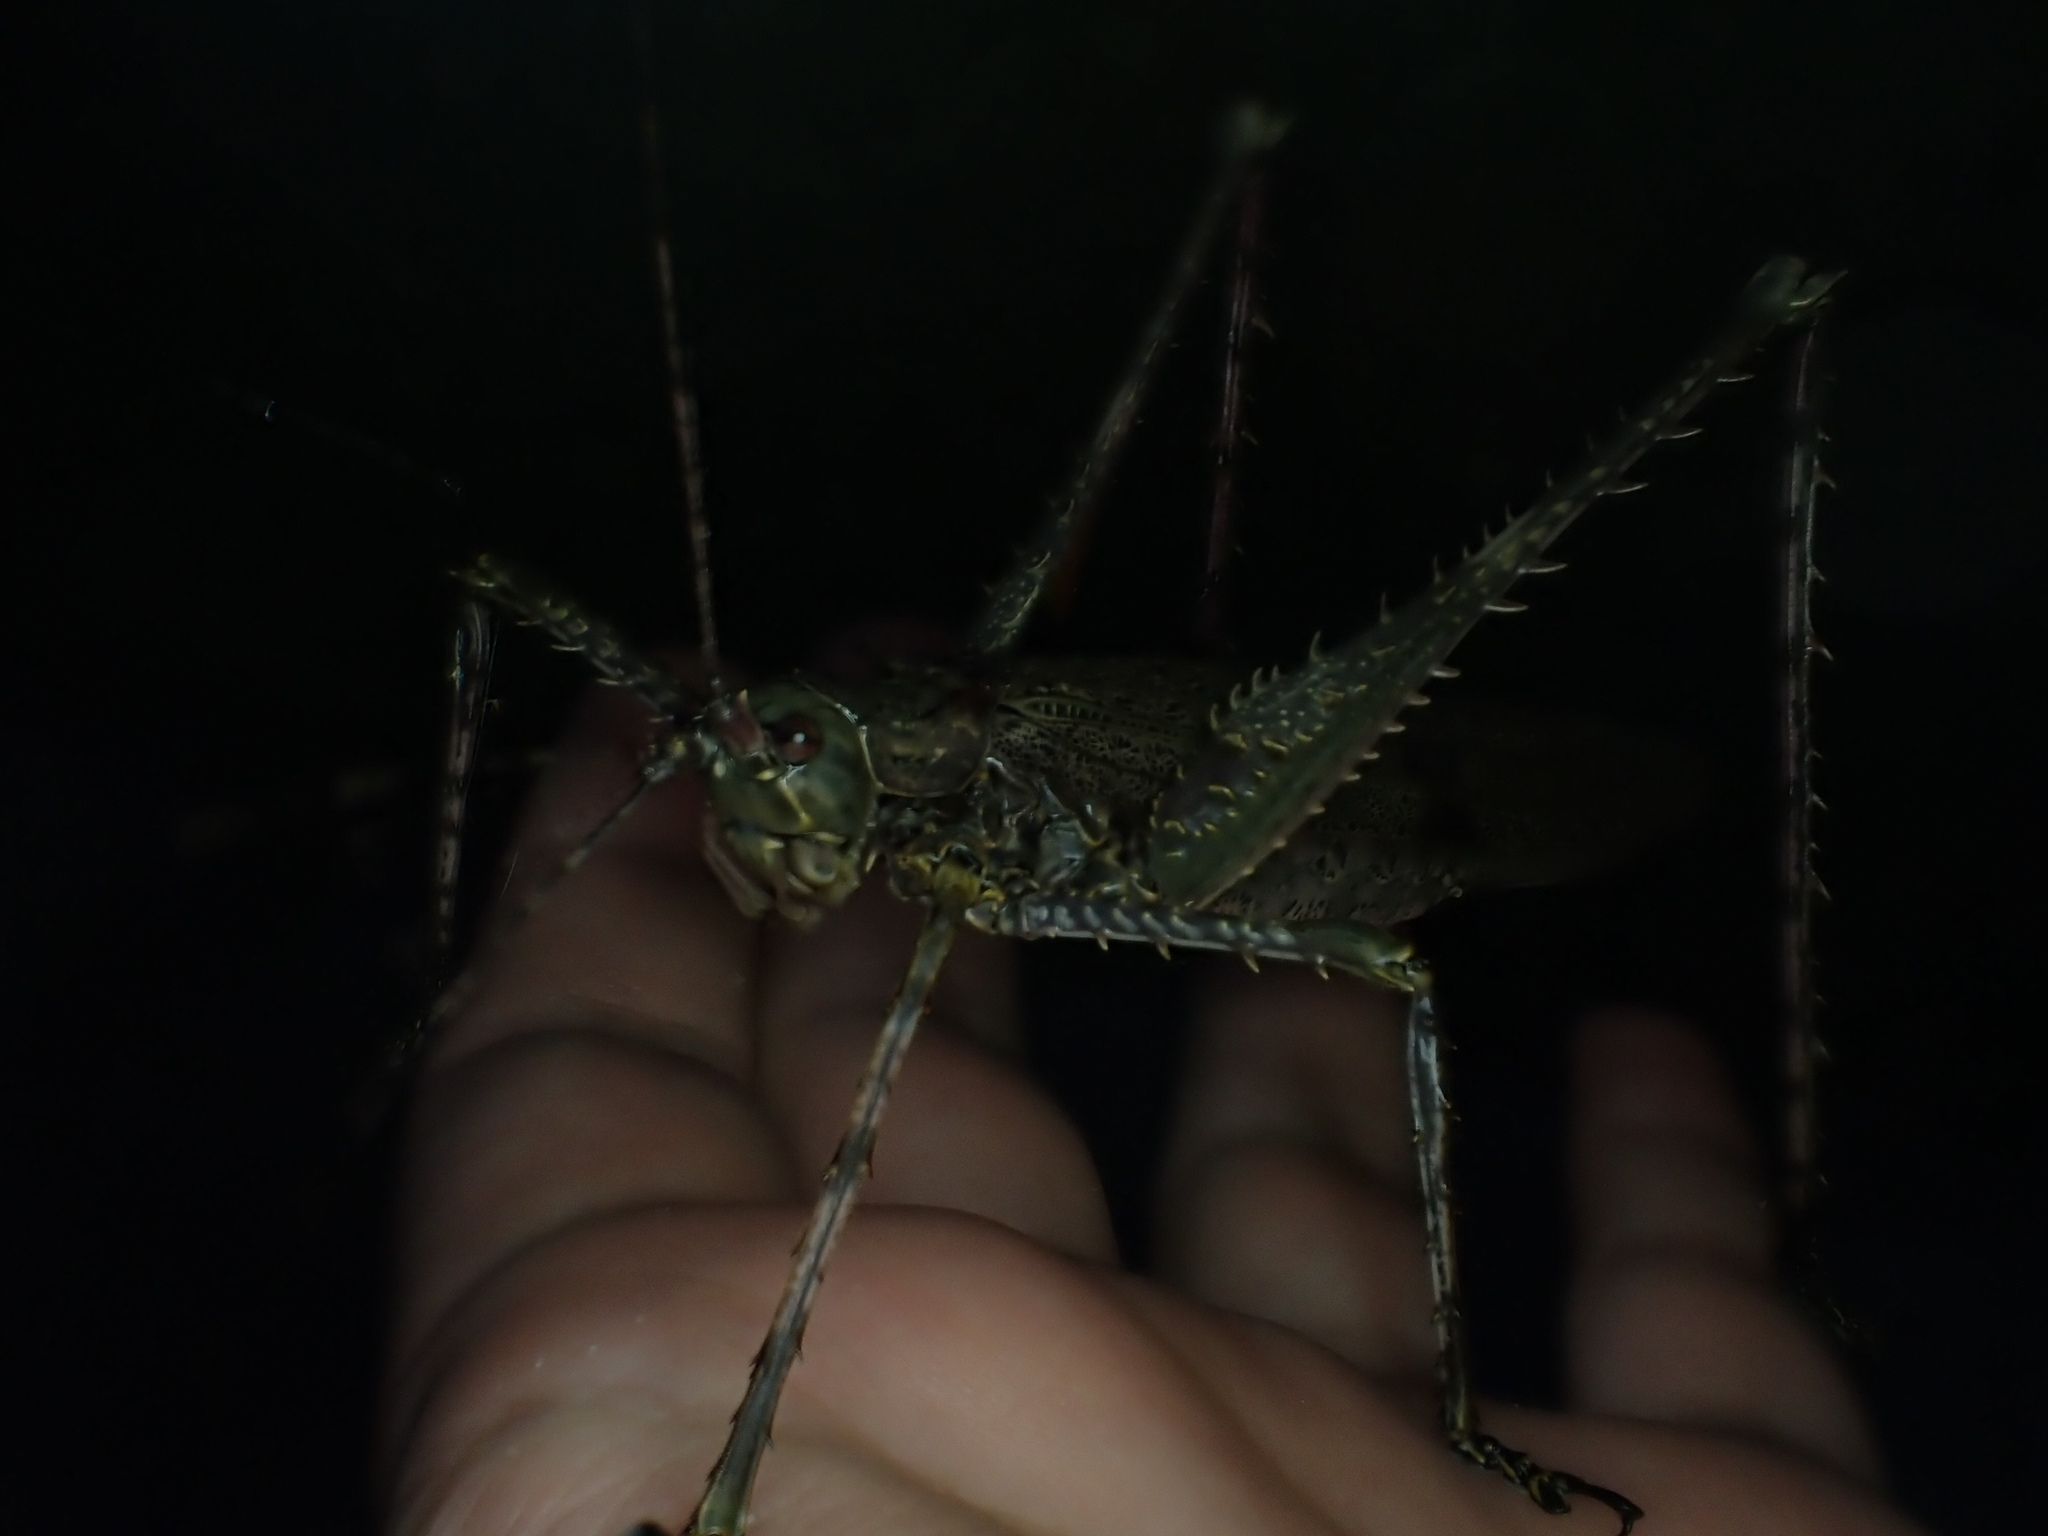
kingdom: Animalia
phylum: Arthropoda
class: Insecta
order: Orthoptera
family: Tettigoniidae
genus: Phricta
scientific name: Phricta spinosa
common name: Giant spiny forest katydid
